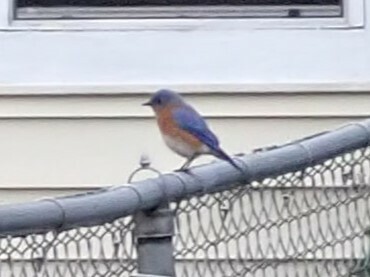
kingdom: Animalia
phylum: Chordata
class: Aves
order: Passeriformes
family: Turdidae
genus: Sialia
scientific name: Sialia sialis
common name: Eastern bluebird
